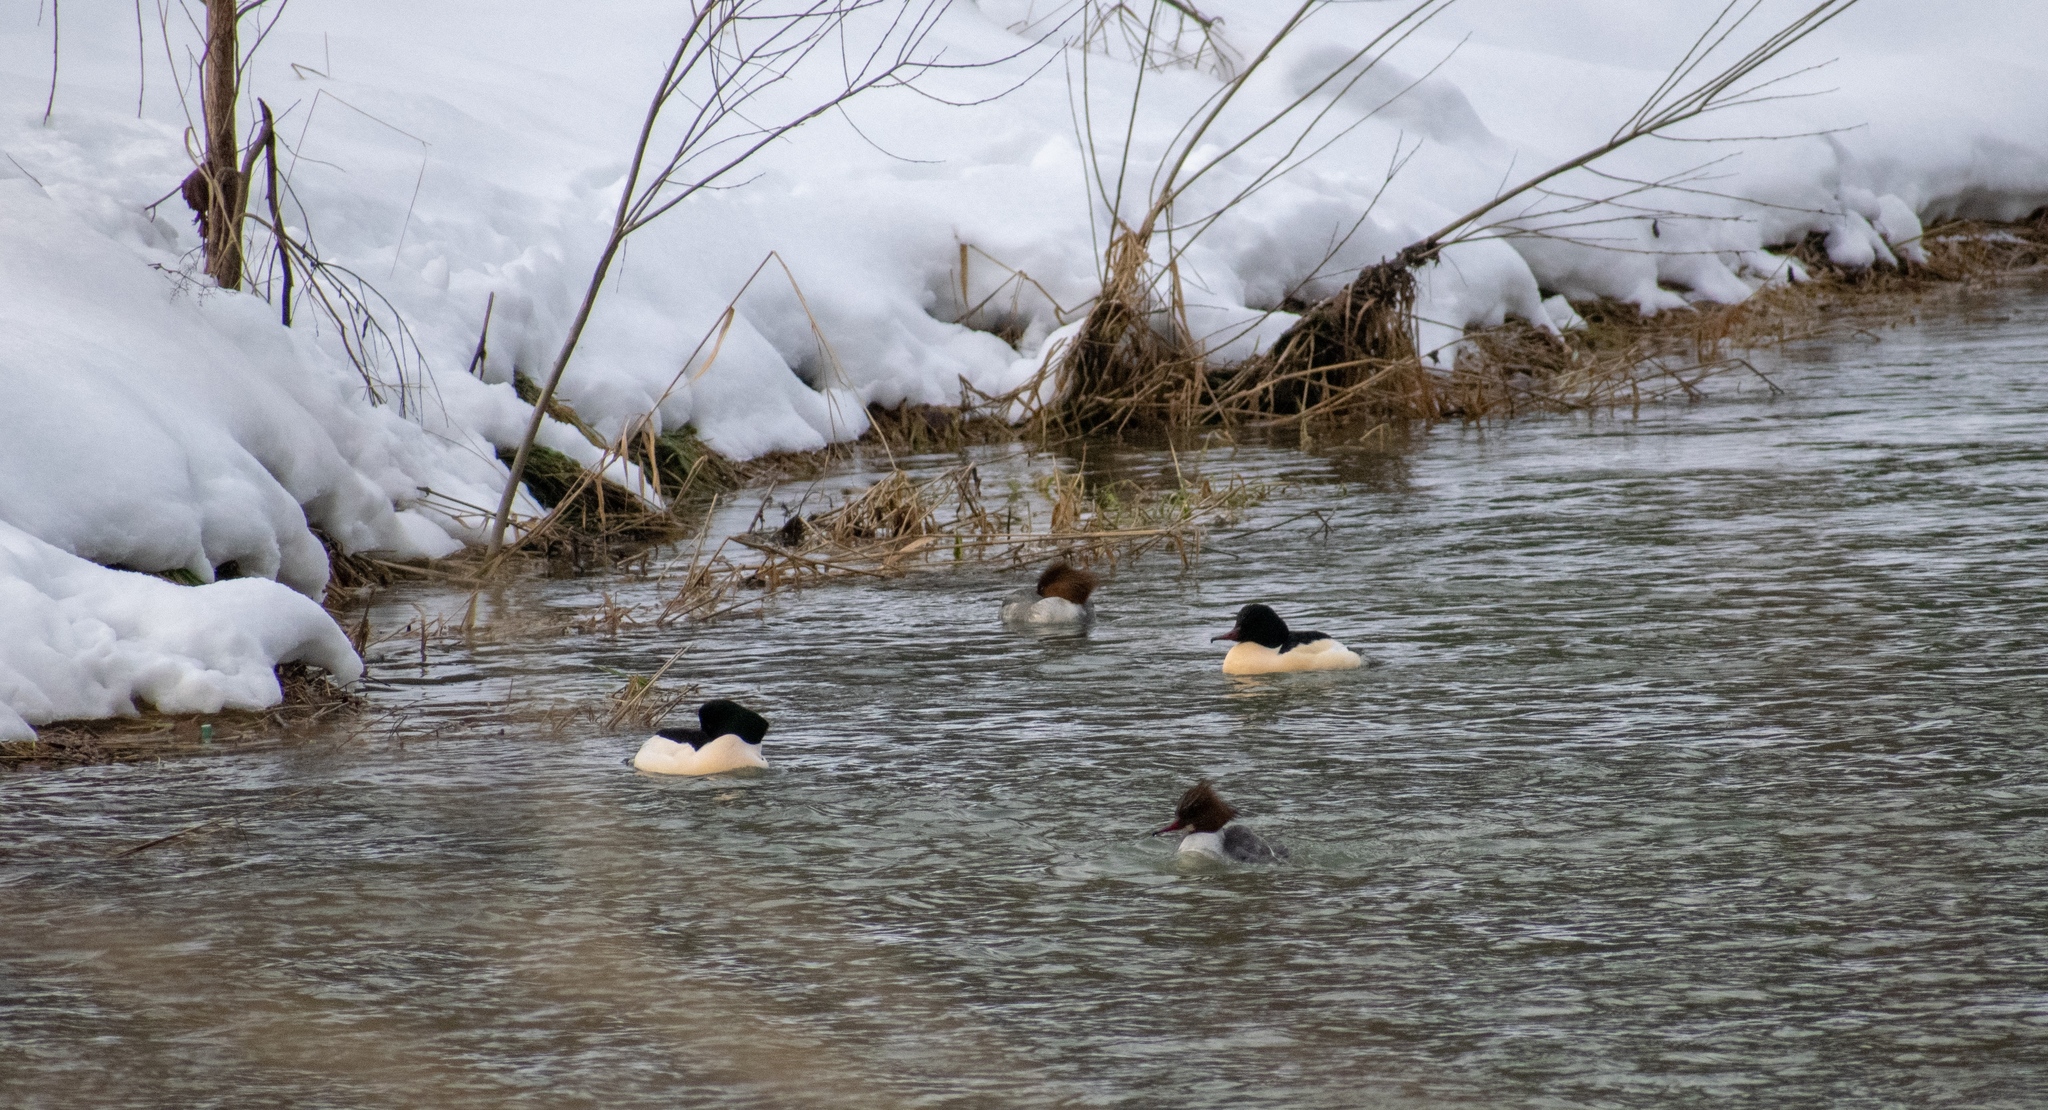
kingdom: Animalia
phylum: Chordata
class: Aves
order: Anseriformes
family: Anatidae
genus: Mergus
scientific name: Mergus merganser
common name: Common merganser
